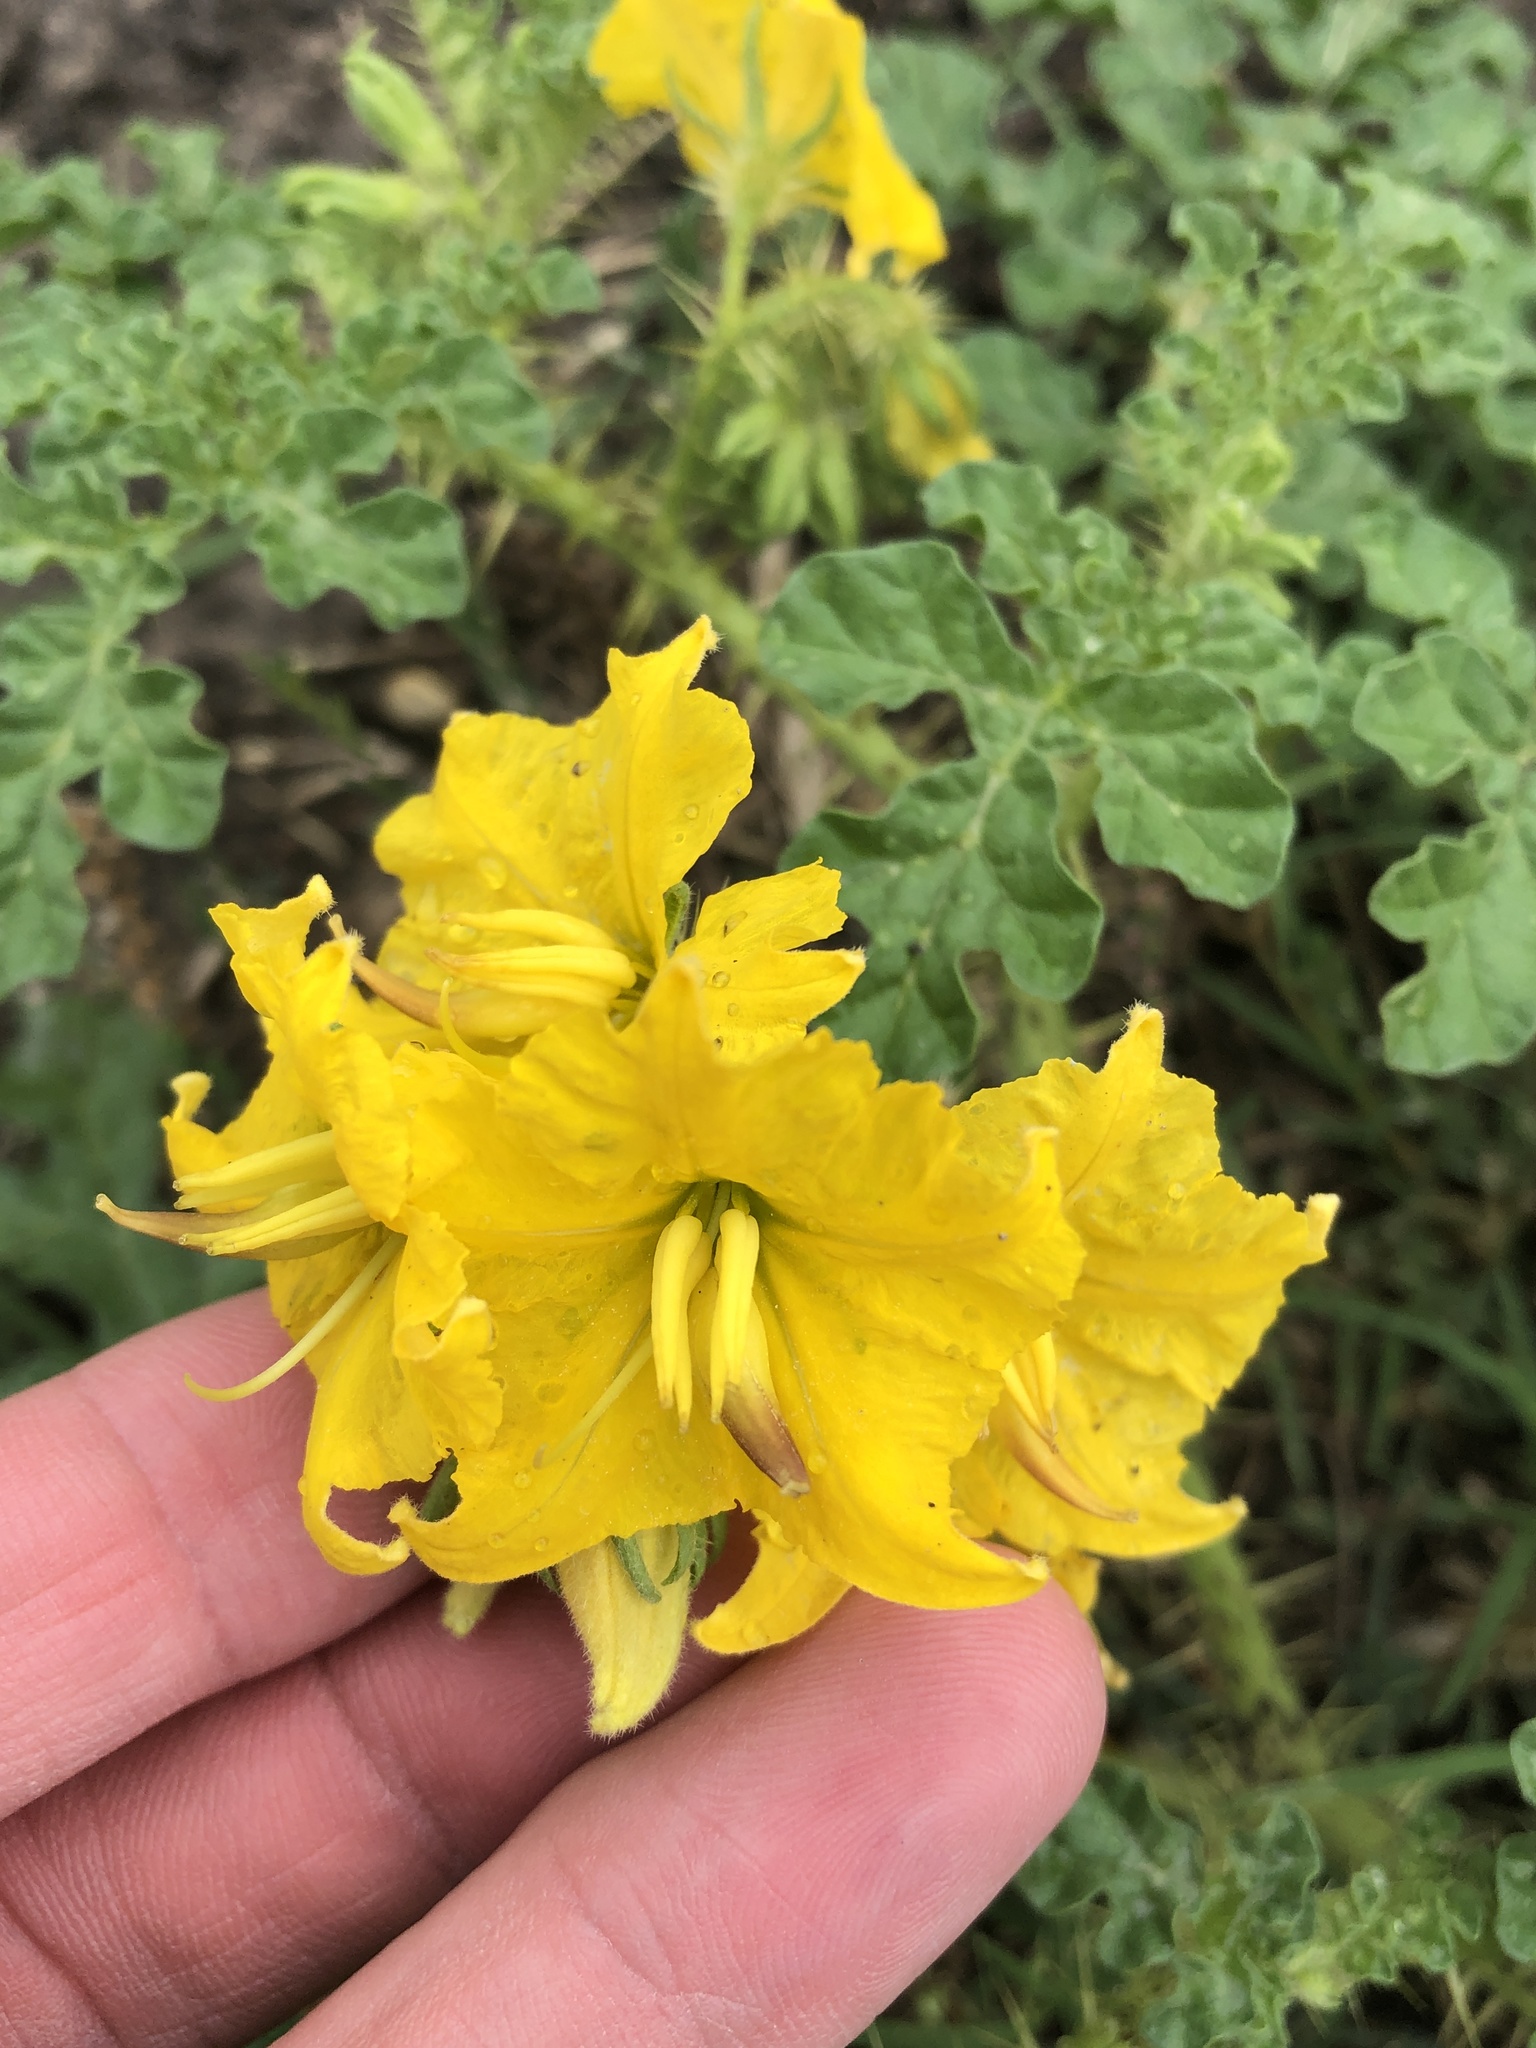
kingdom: Plantae
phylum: Tracheophyta
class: Magnoliopsida
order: Solanales
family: Solanaceae
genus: Solanum
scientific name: Solanum angustifolium
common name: Buffalobur nightshade
